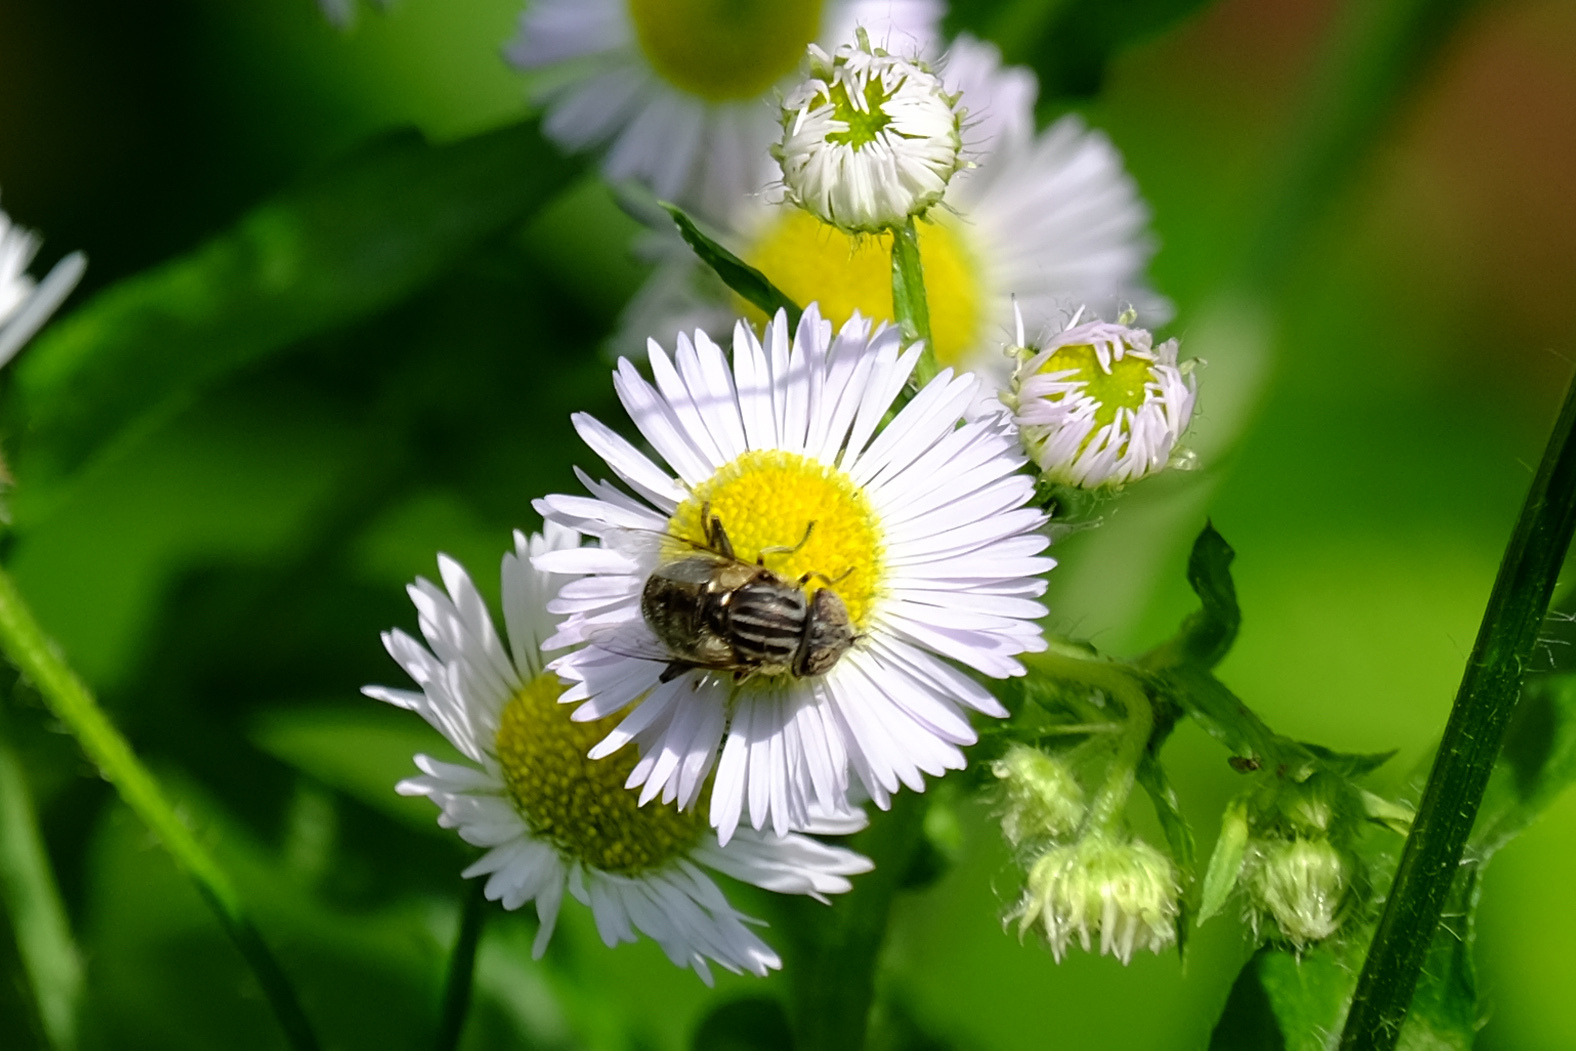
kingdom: Animalia
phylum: Arthropoda
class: Insecta
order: Diptera
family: Syrphidae
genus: Eristalinus
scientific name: Eristalinus aeneus
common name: Syrphid fly
